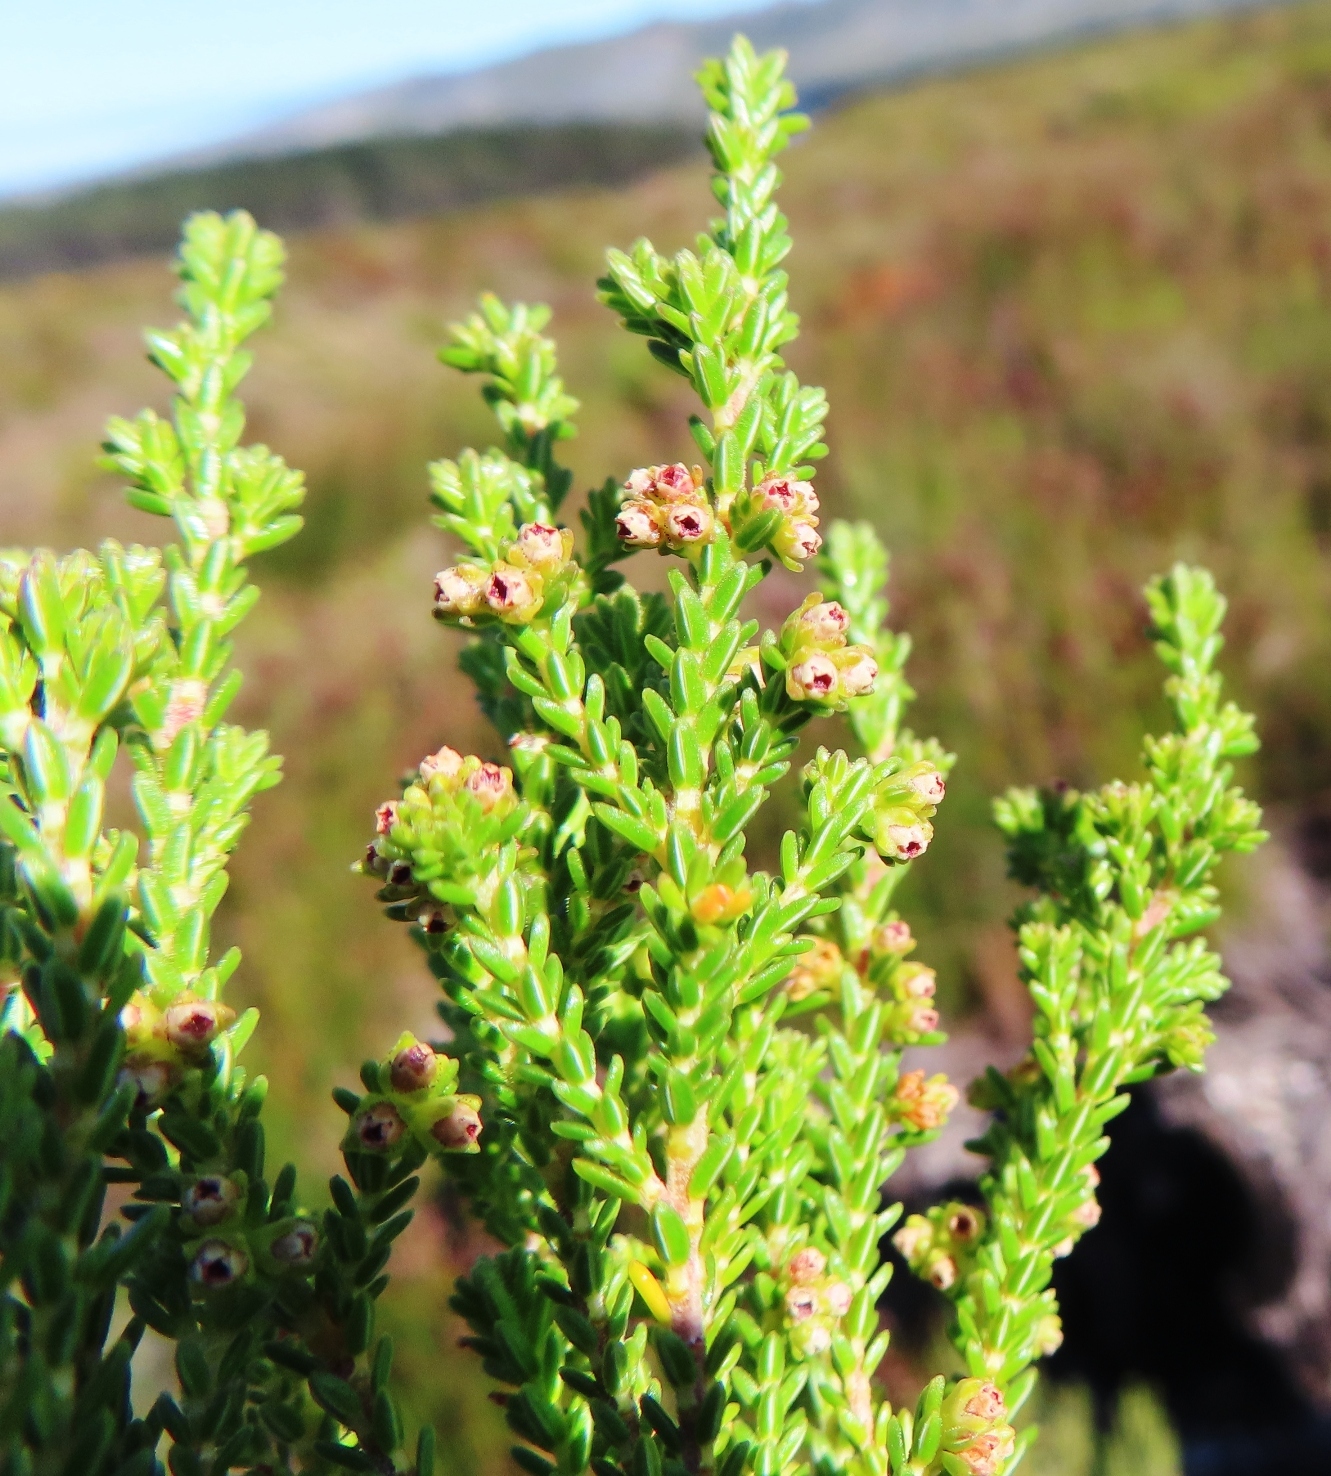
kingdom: Plantae
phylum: Tracheophyta
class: Magnoliopsida
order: Ericales
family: Ericaceae
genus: Erica
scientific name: Erica serrata
